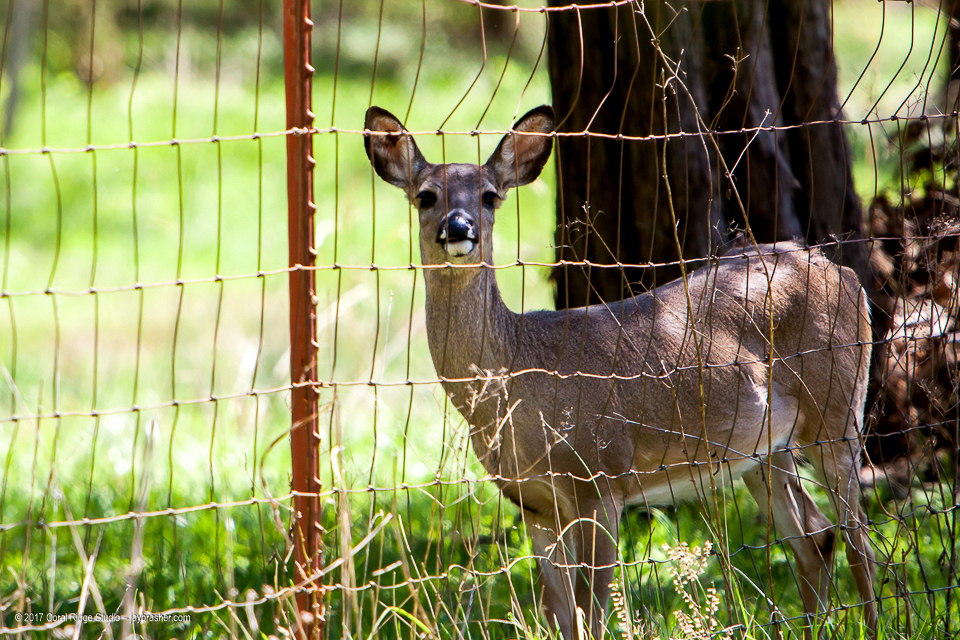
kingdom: Animalia
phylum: Chordata
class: Mammalia
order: Artiodactyla
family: Cervidae
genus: Odocoileus
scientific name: Odocoileus virginianus
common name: White-tailed deer
